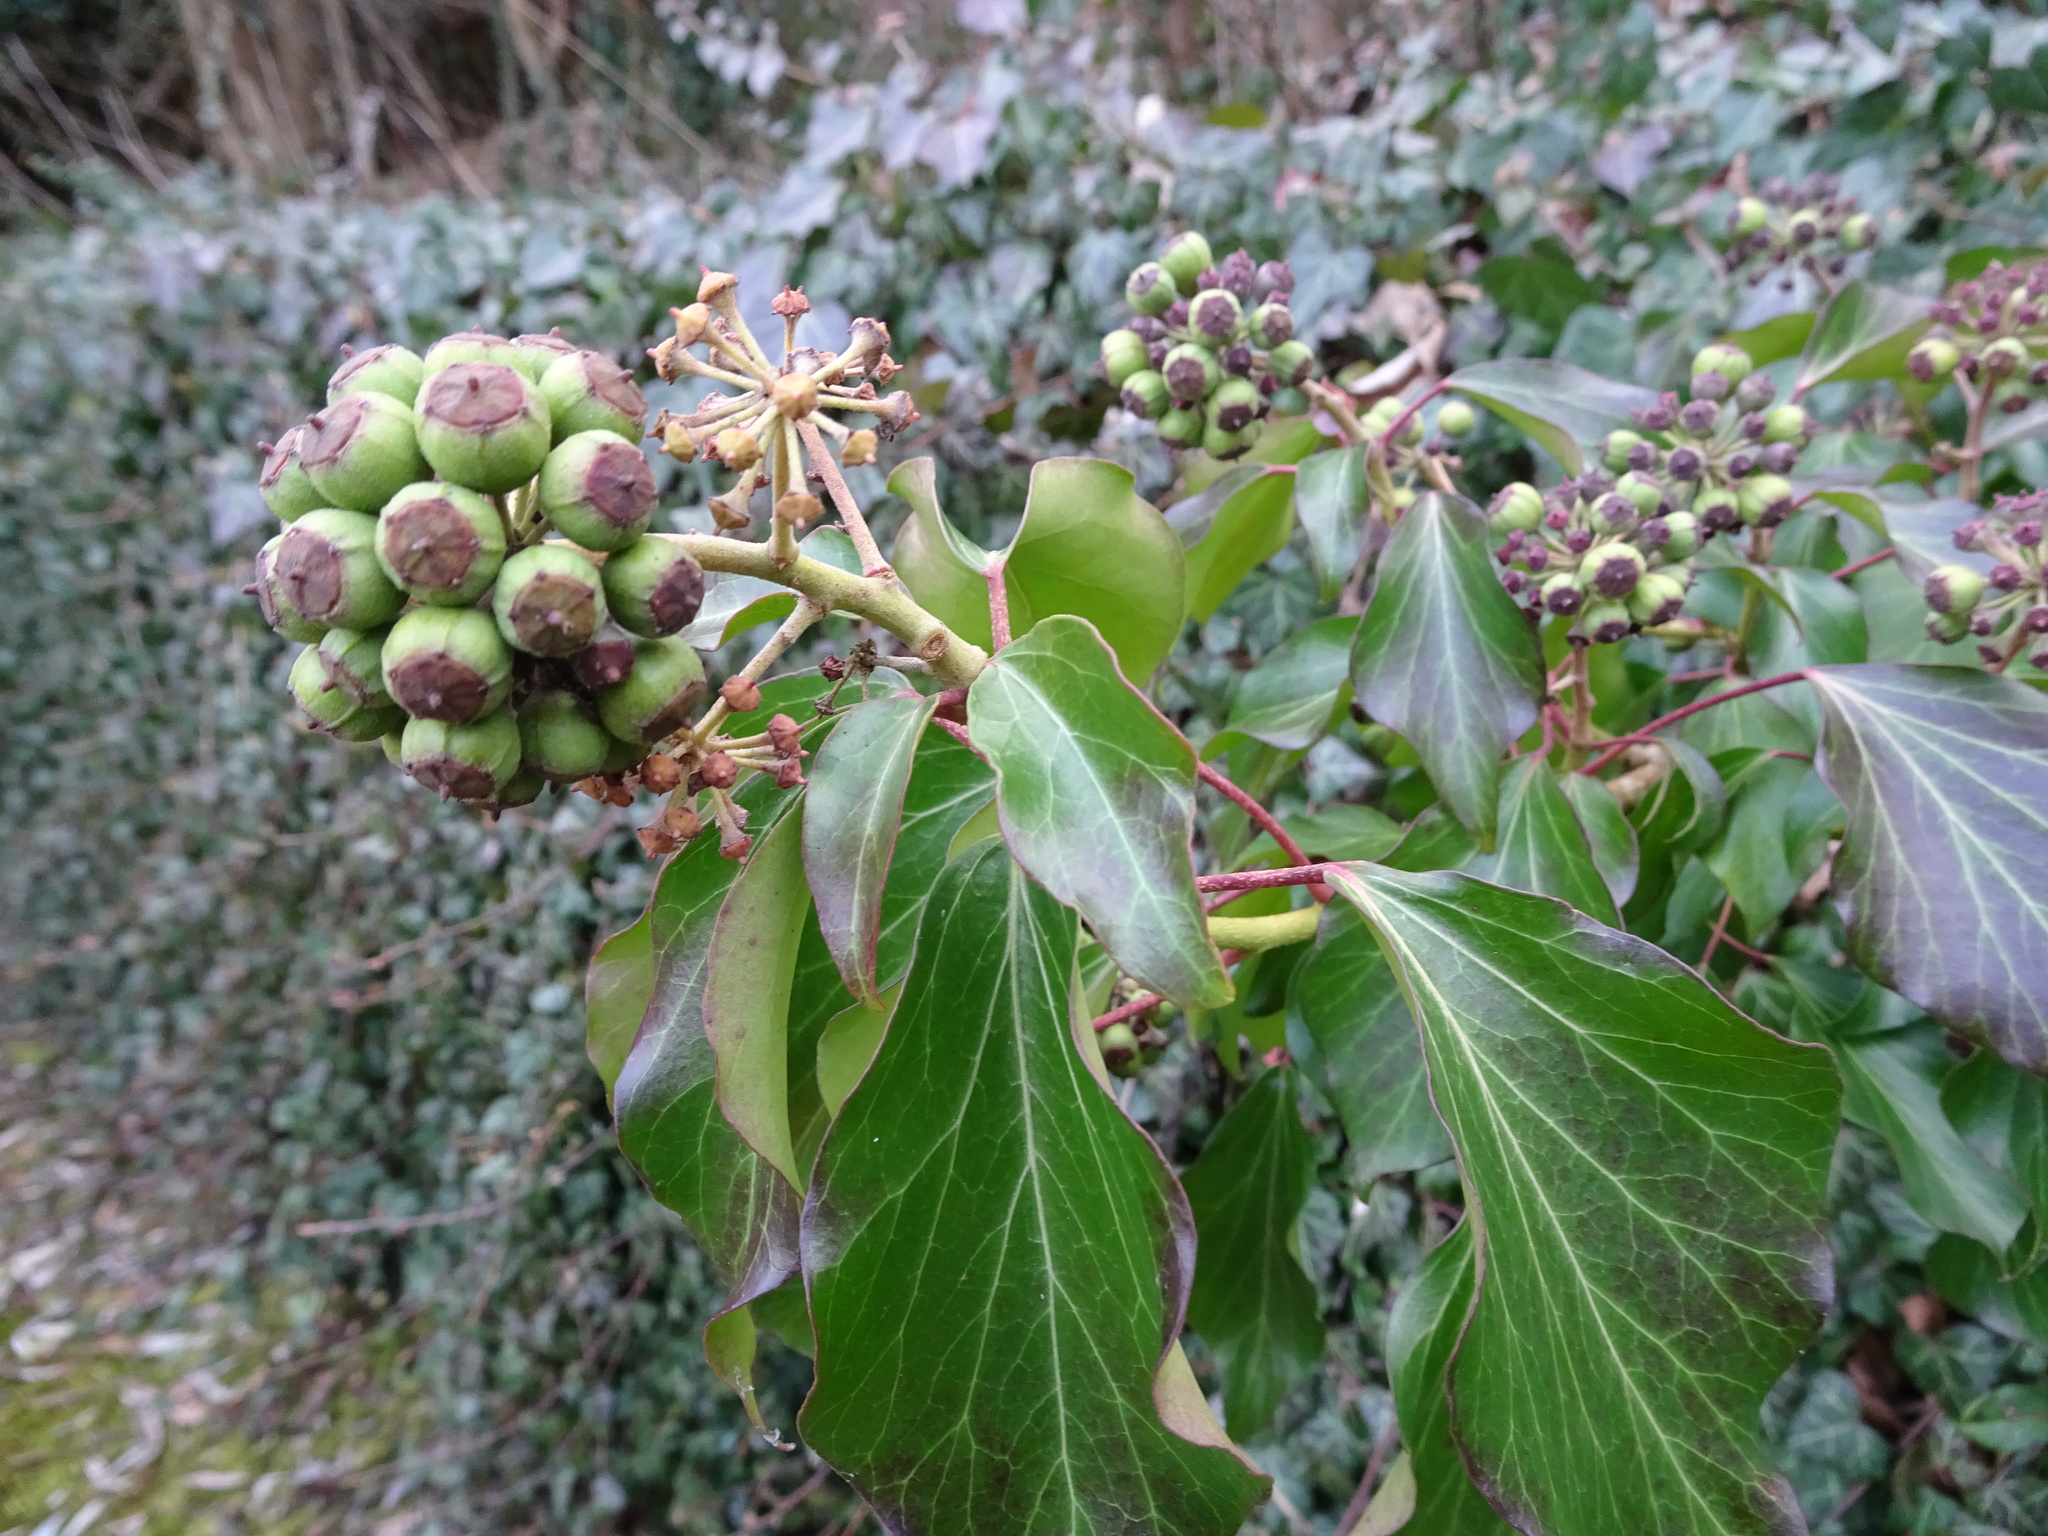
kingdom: Plantae
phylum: Tracheophyta
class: Magnoliopsida
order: Apiales
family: Araliaceae
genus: Hedera
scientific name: Hedera helix
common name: Ivy
